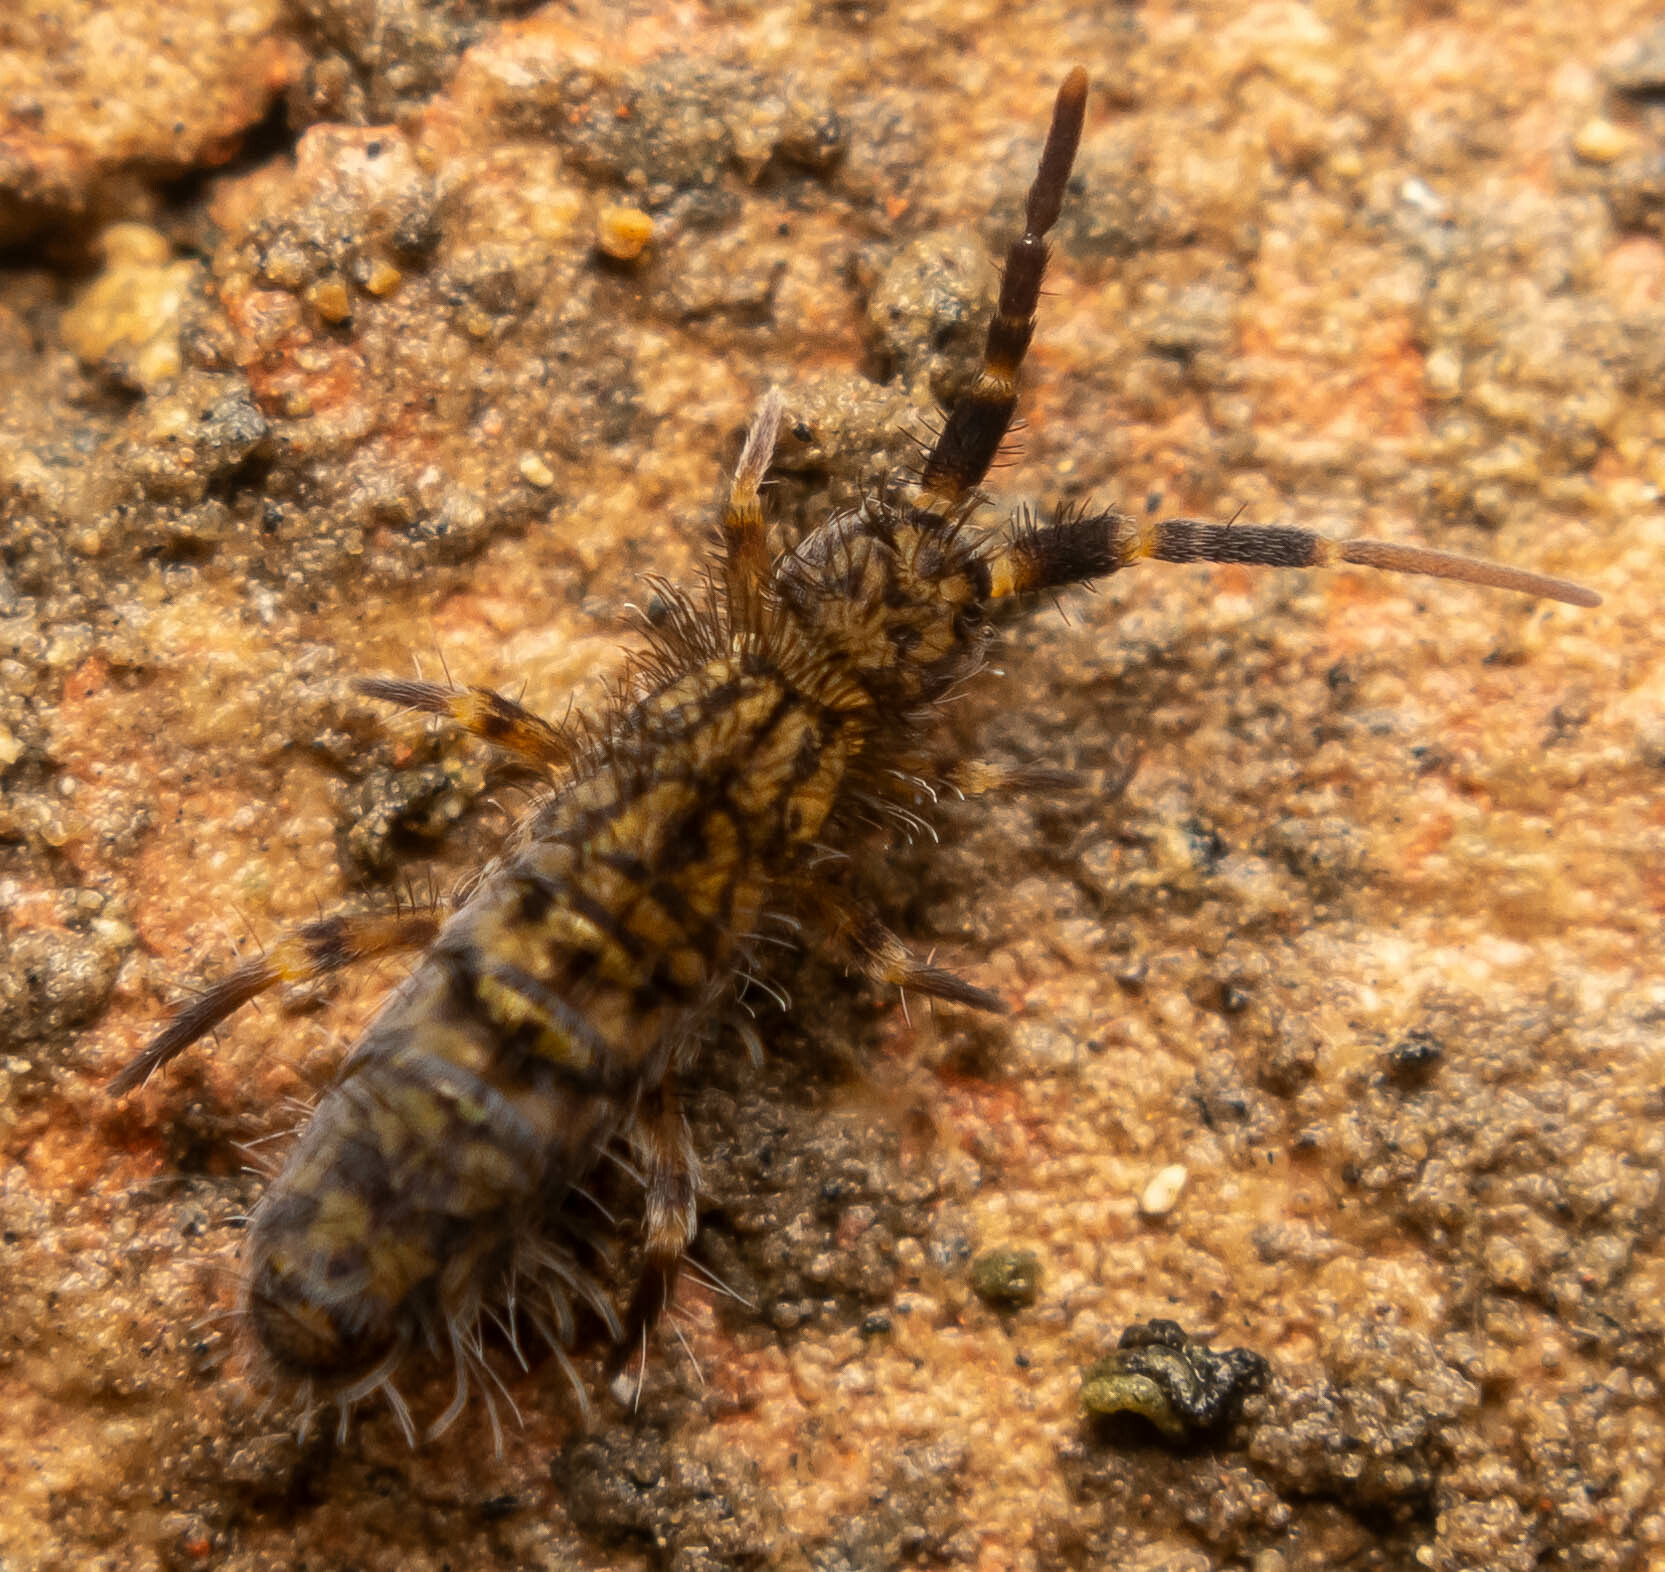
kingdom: Animalia
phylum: Arthropoda
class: Collembola
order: Entomobryomorpha
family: Orchesellidae
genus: Orchesella
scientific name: Orchesella villosa
